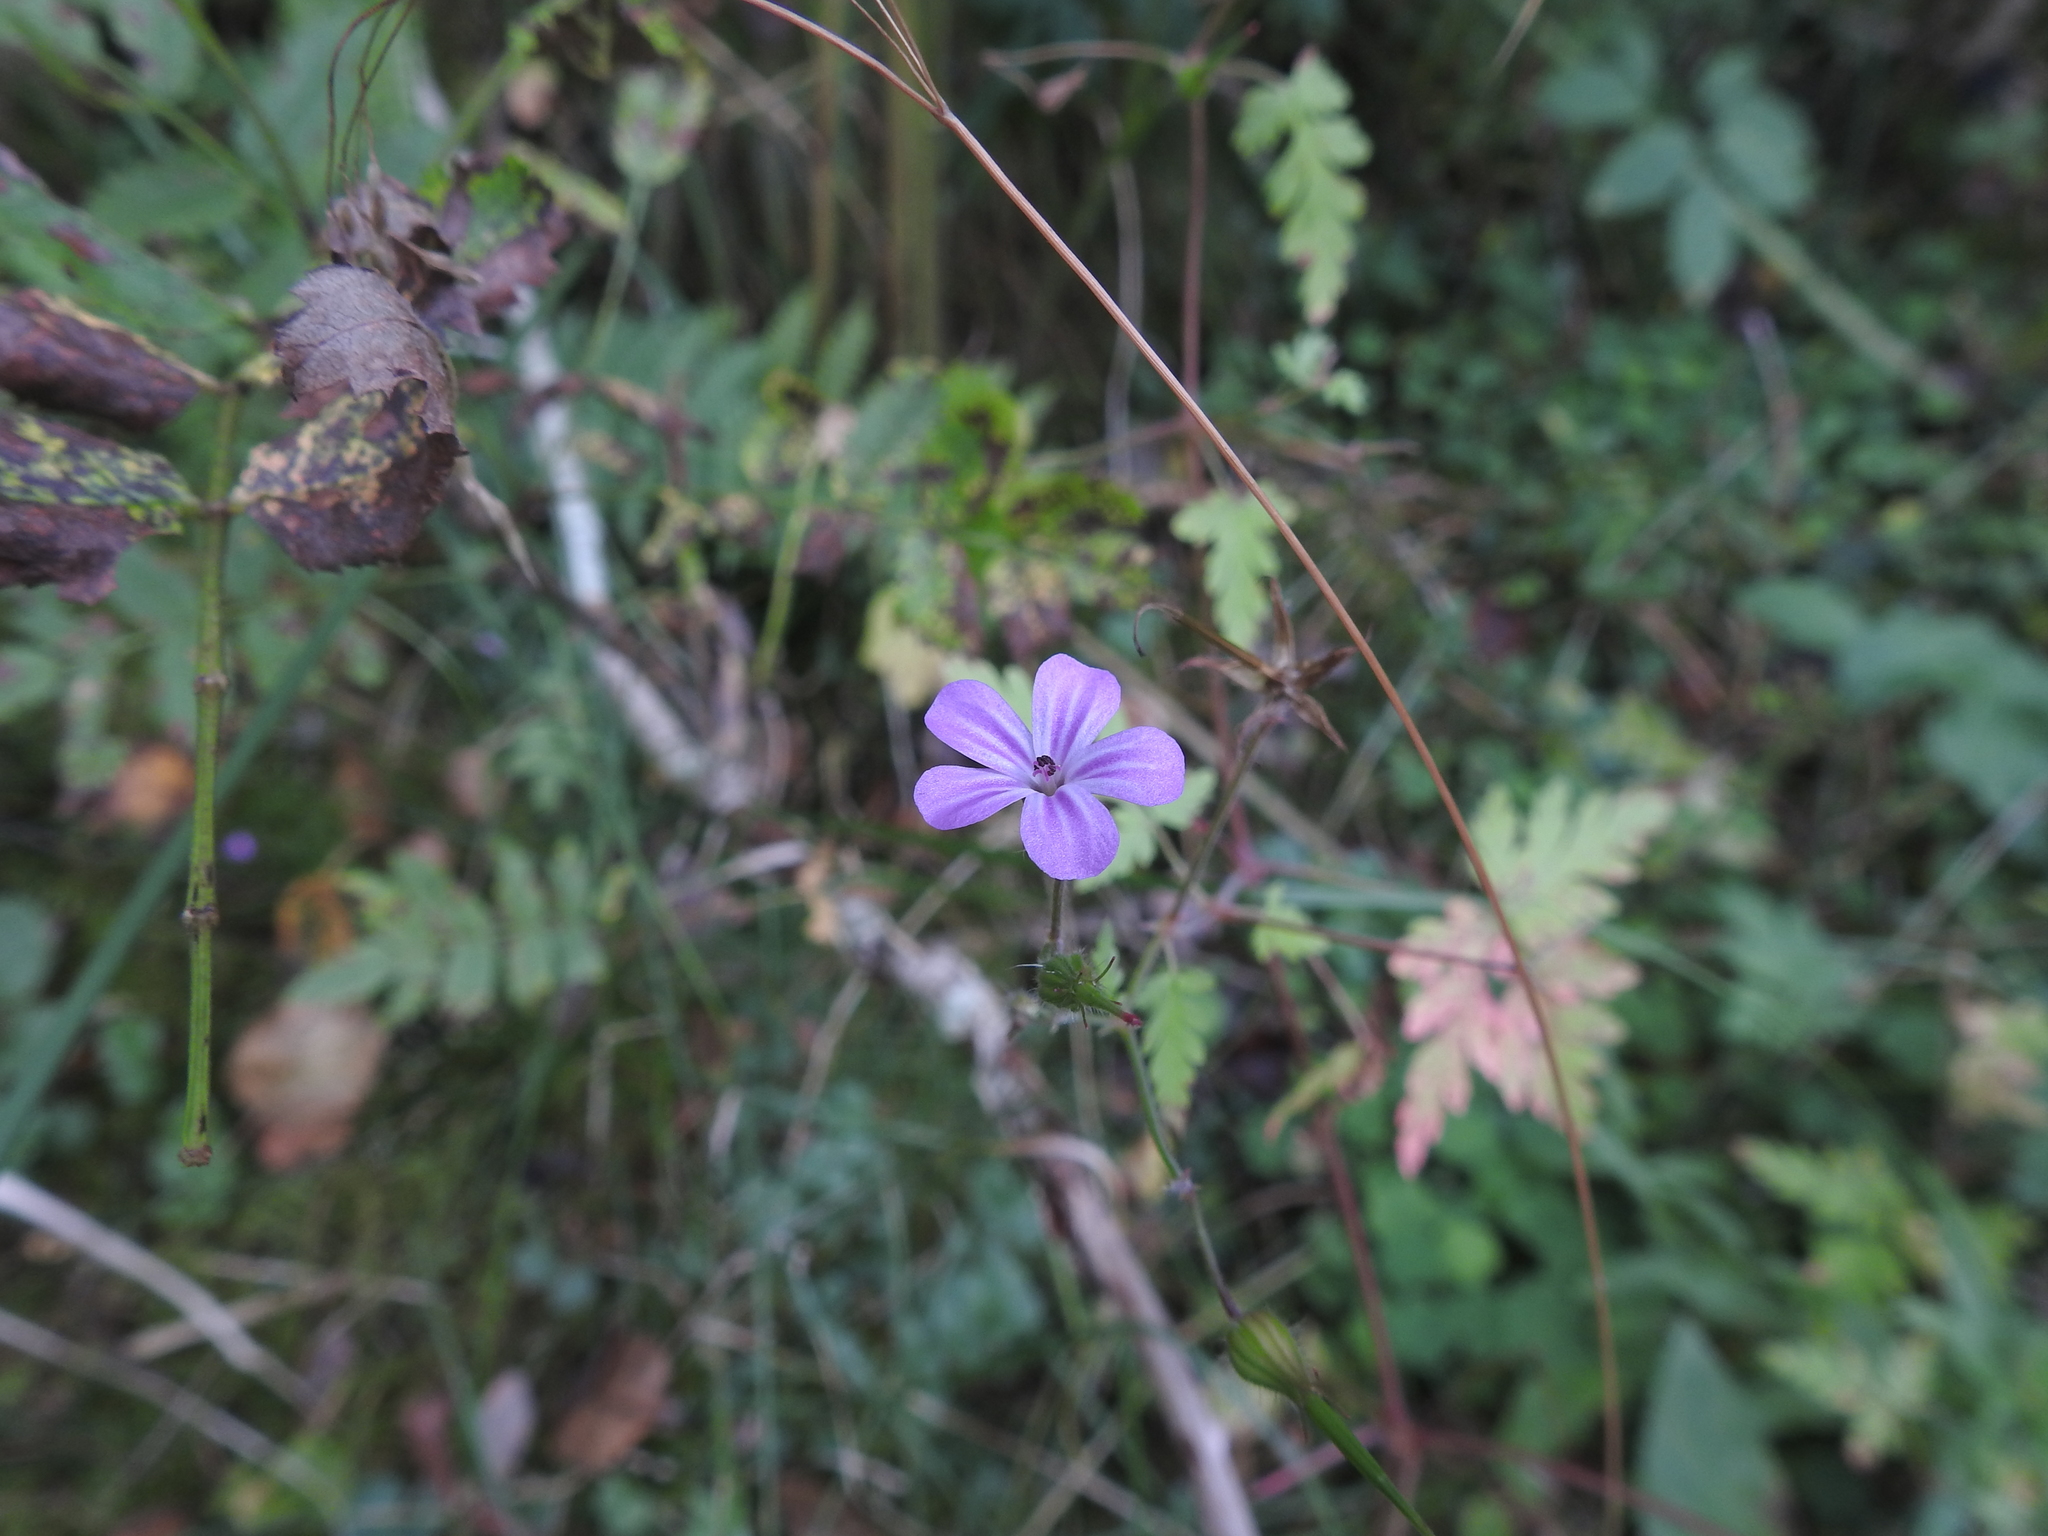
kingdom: Plantae
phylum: Tracheophyta
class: Magnoliopsida
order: Geraniales
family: Geraniaceae
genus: Geranium
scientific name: Geranium robertianum
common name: Herb-robert
